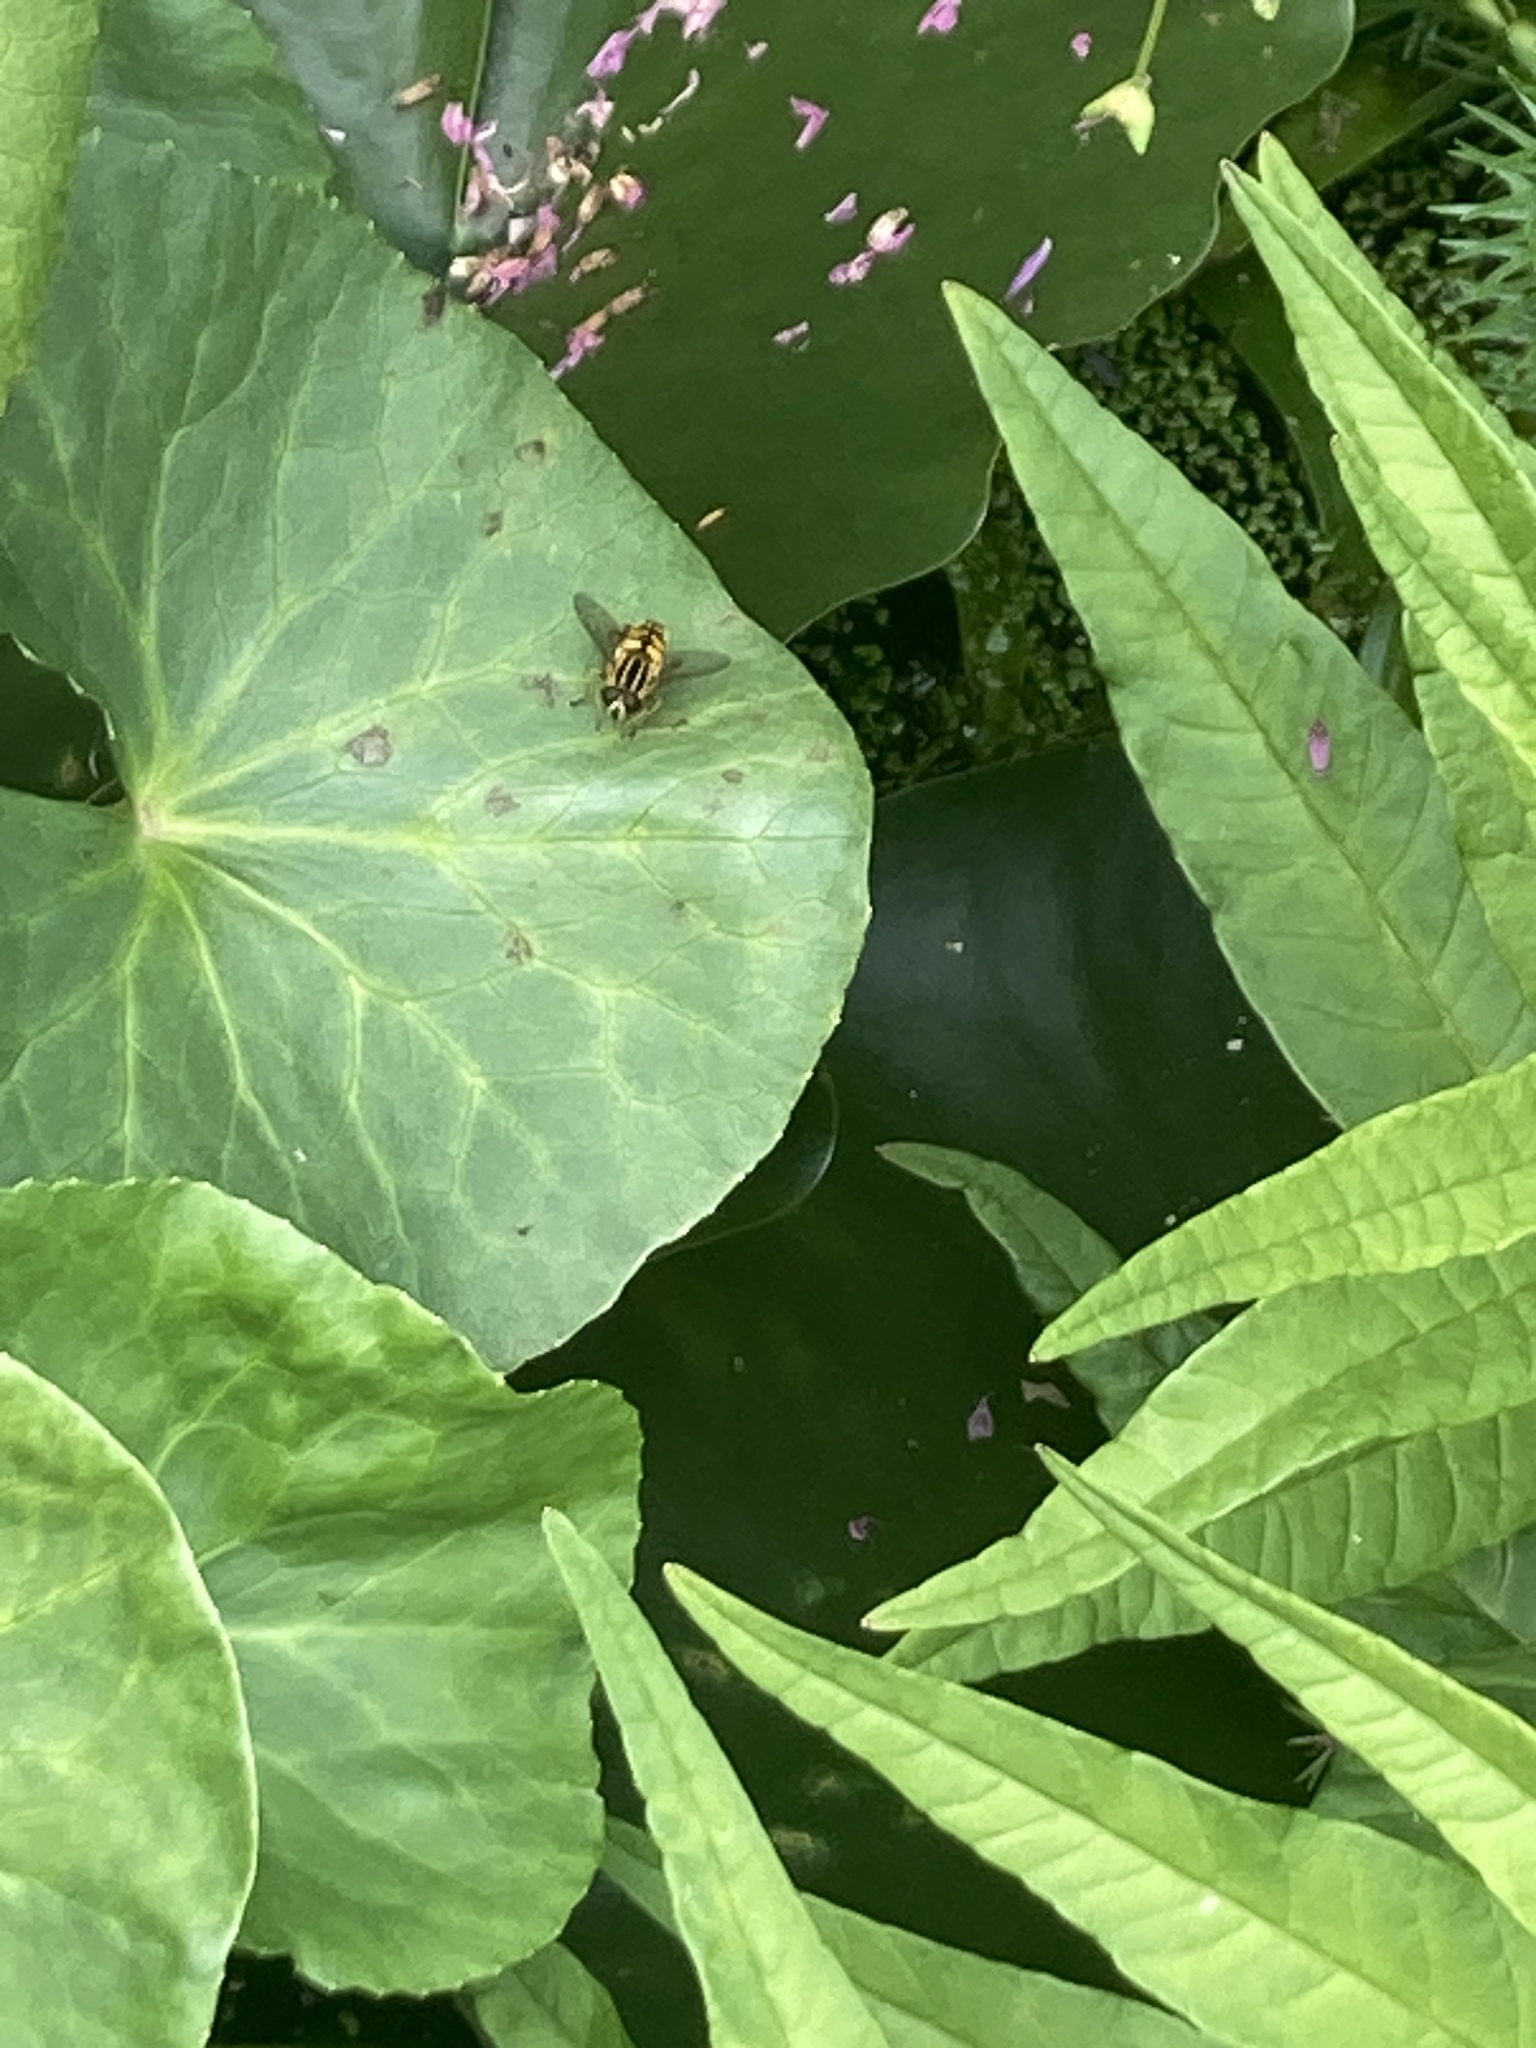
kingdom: Animalia
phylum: Arthropoda
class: Insecta
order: Diptera
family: Syrphidae
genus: Helophilus
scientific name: Helophilus
